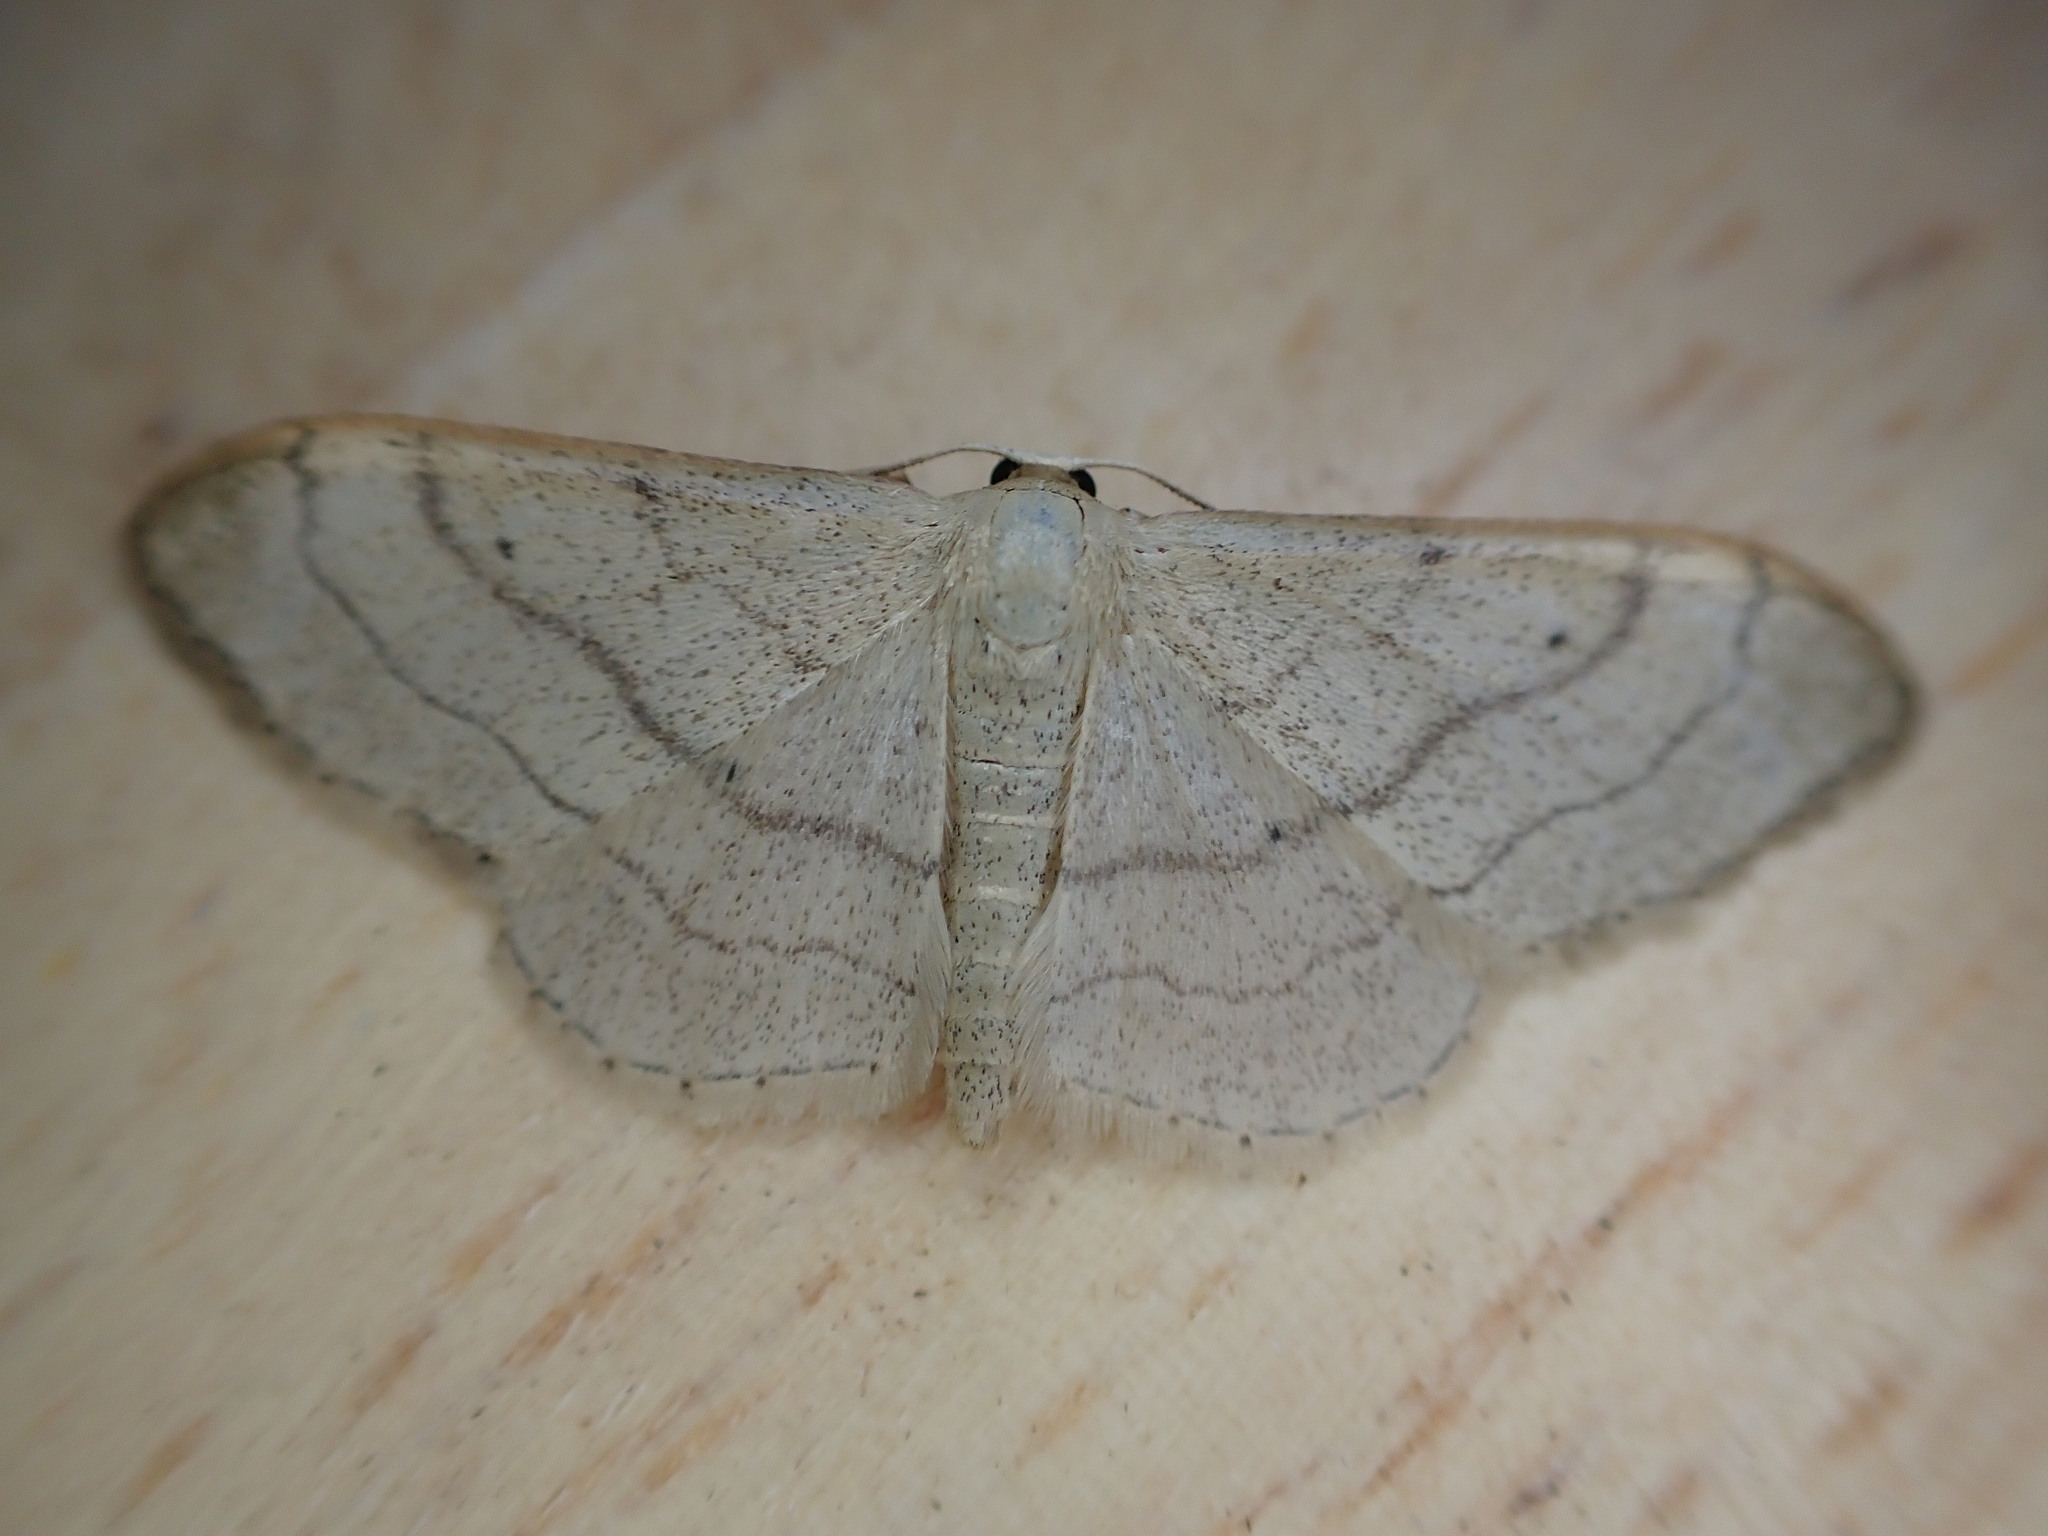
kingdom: Animalia
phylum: Arthropoda
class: Insecta
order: Lepidoptera
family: Geometridae
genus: Idaea
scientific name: Idaea aversata
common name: Riband wave
